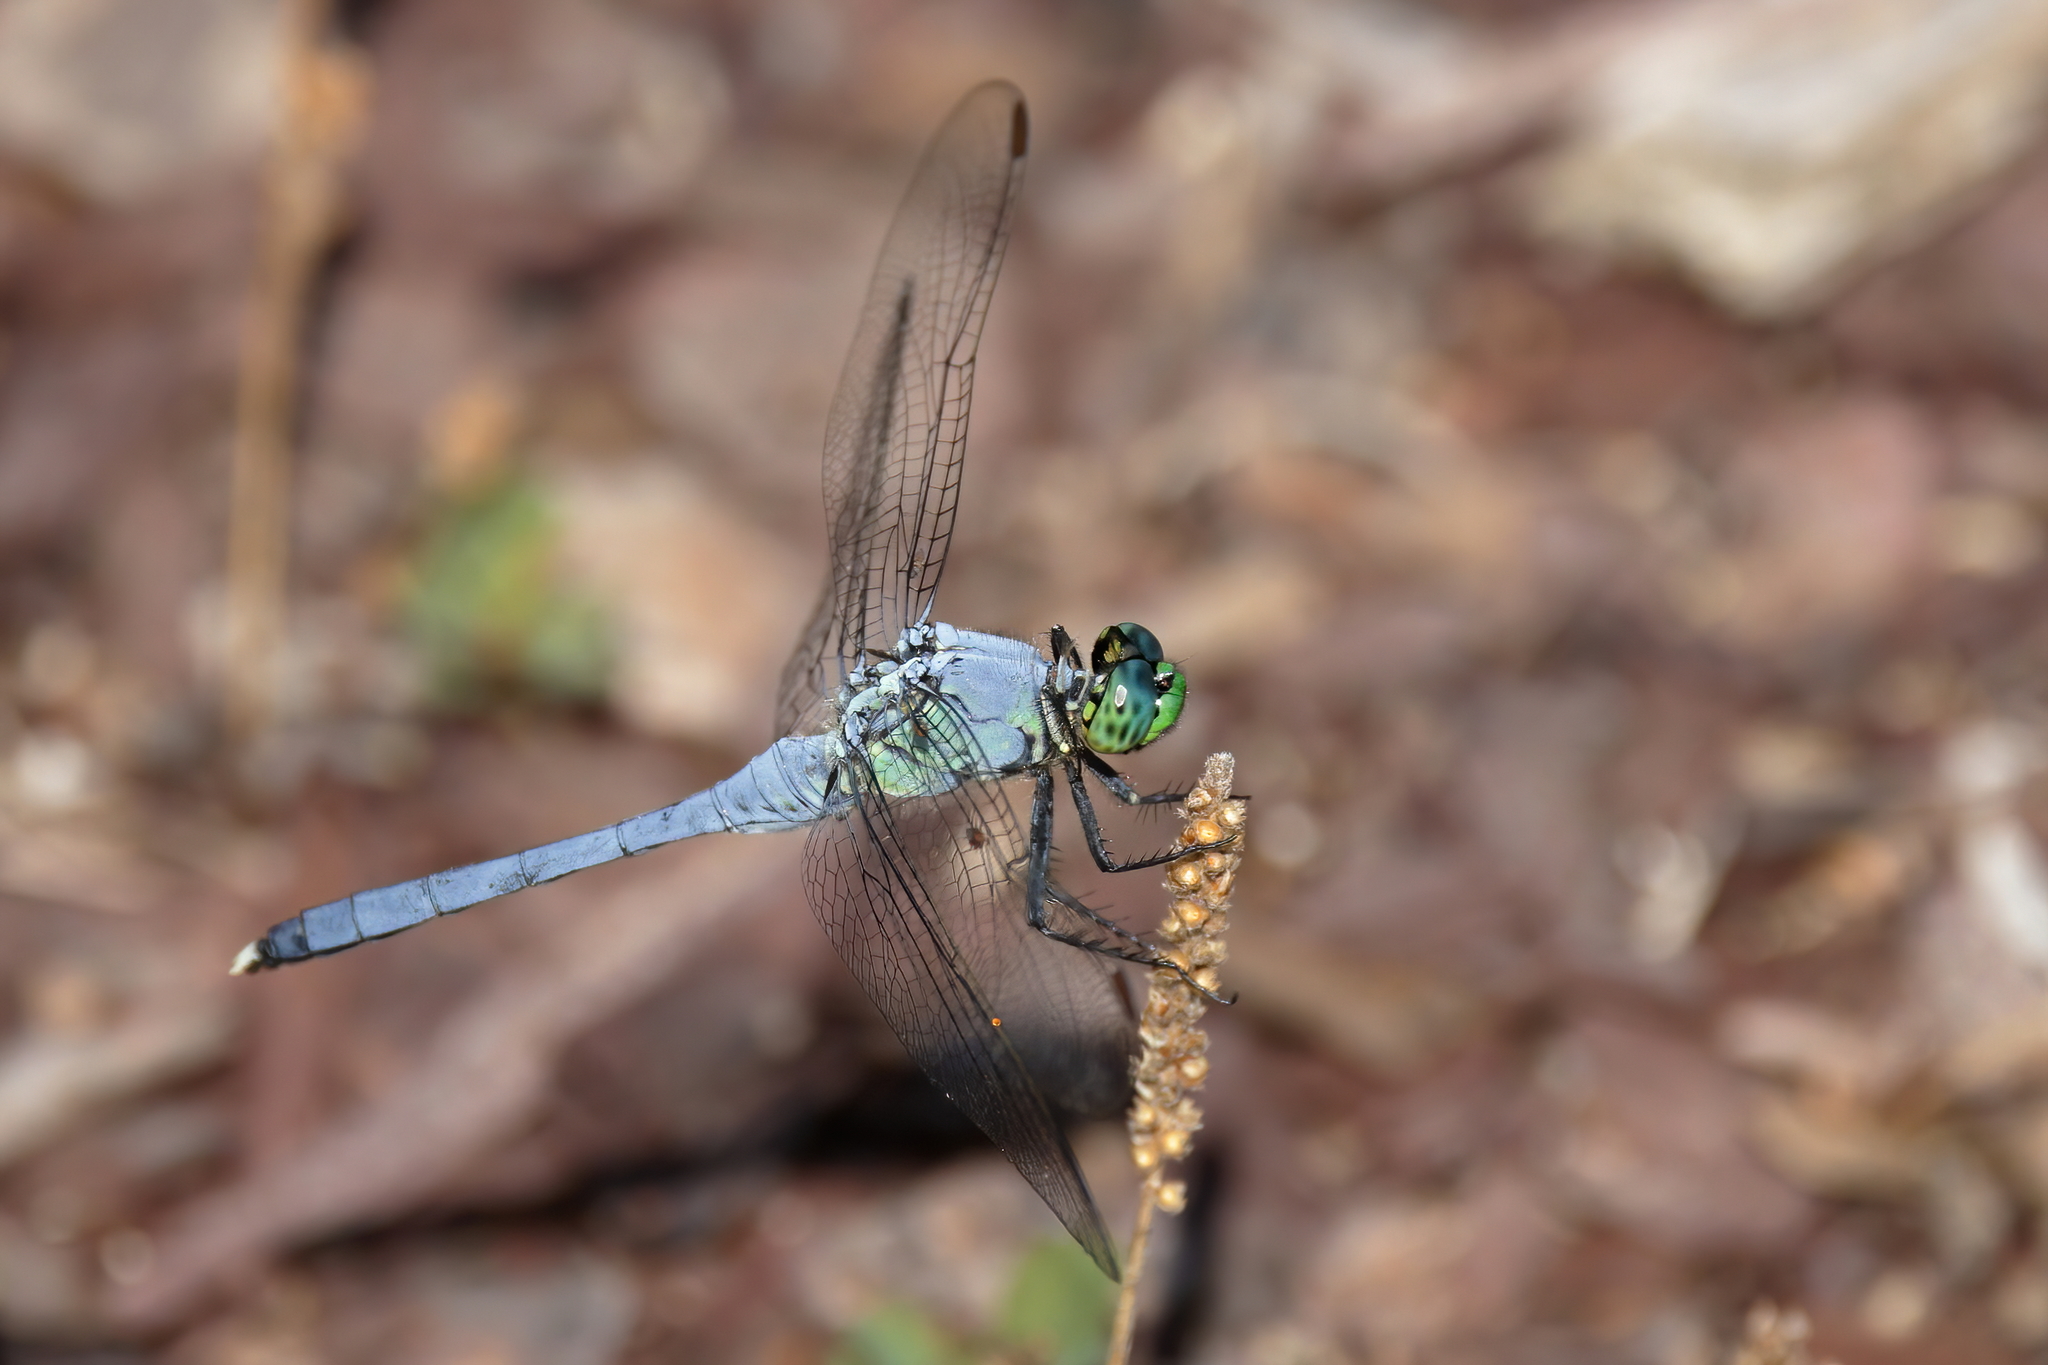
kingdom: Animalia
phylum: Arthropoda
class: Insecta
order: Odonata
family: Libellulidae
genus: Erythemis
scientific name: Erythemis simplicicollis
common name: Eastern pondhawk
